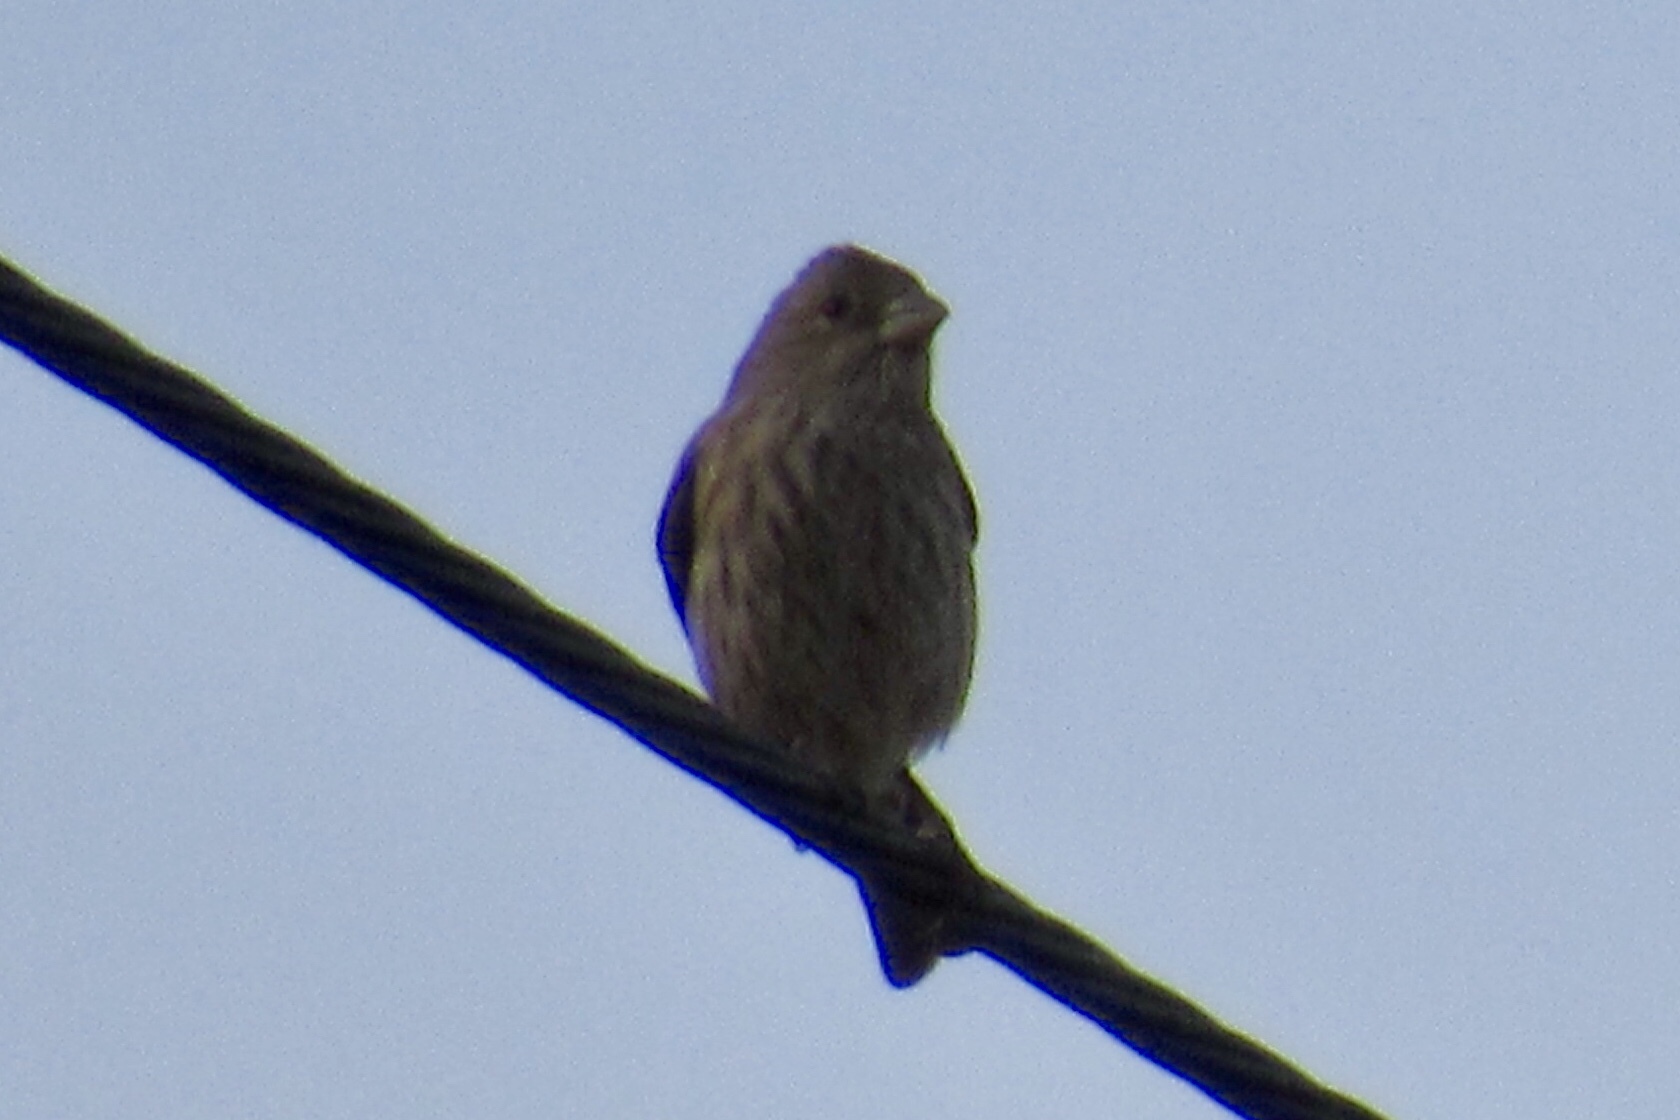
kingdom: Animalia
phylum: Chordata
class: Aves
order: Passeriformes
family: Fringillidae
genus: Haemorhous
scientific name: Haemorhous mexicanus
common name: House finch
